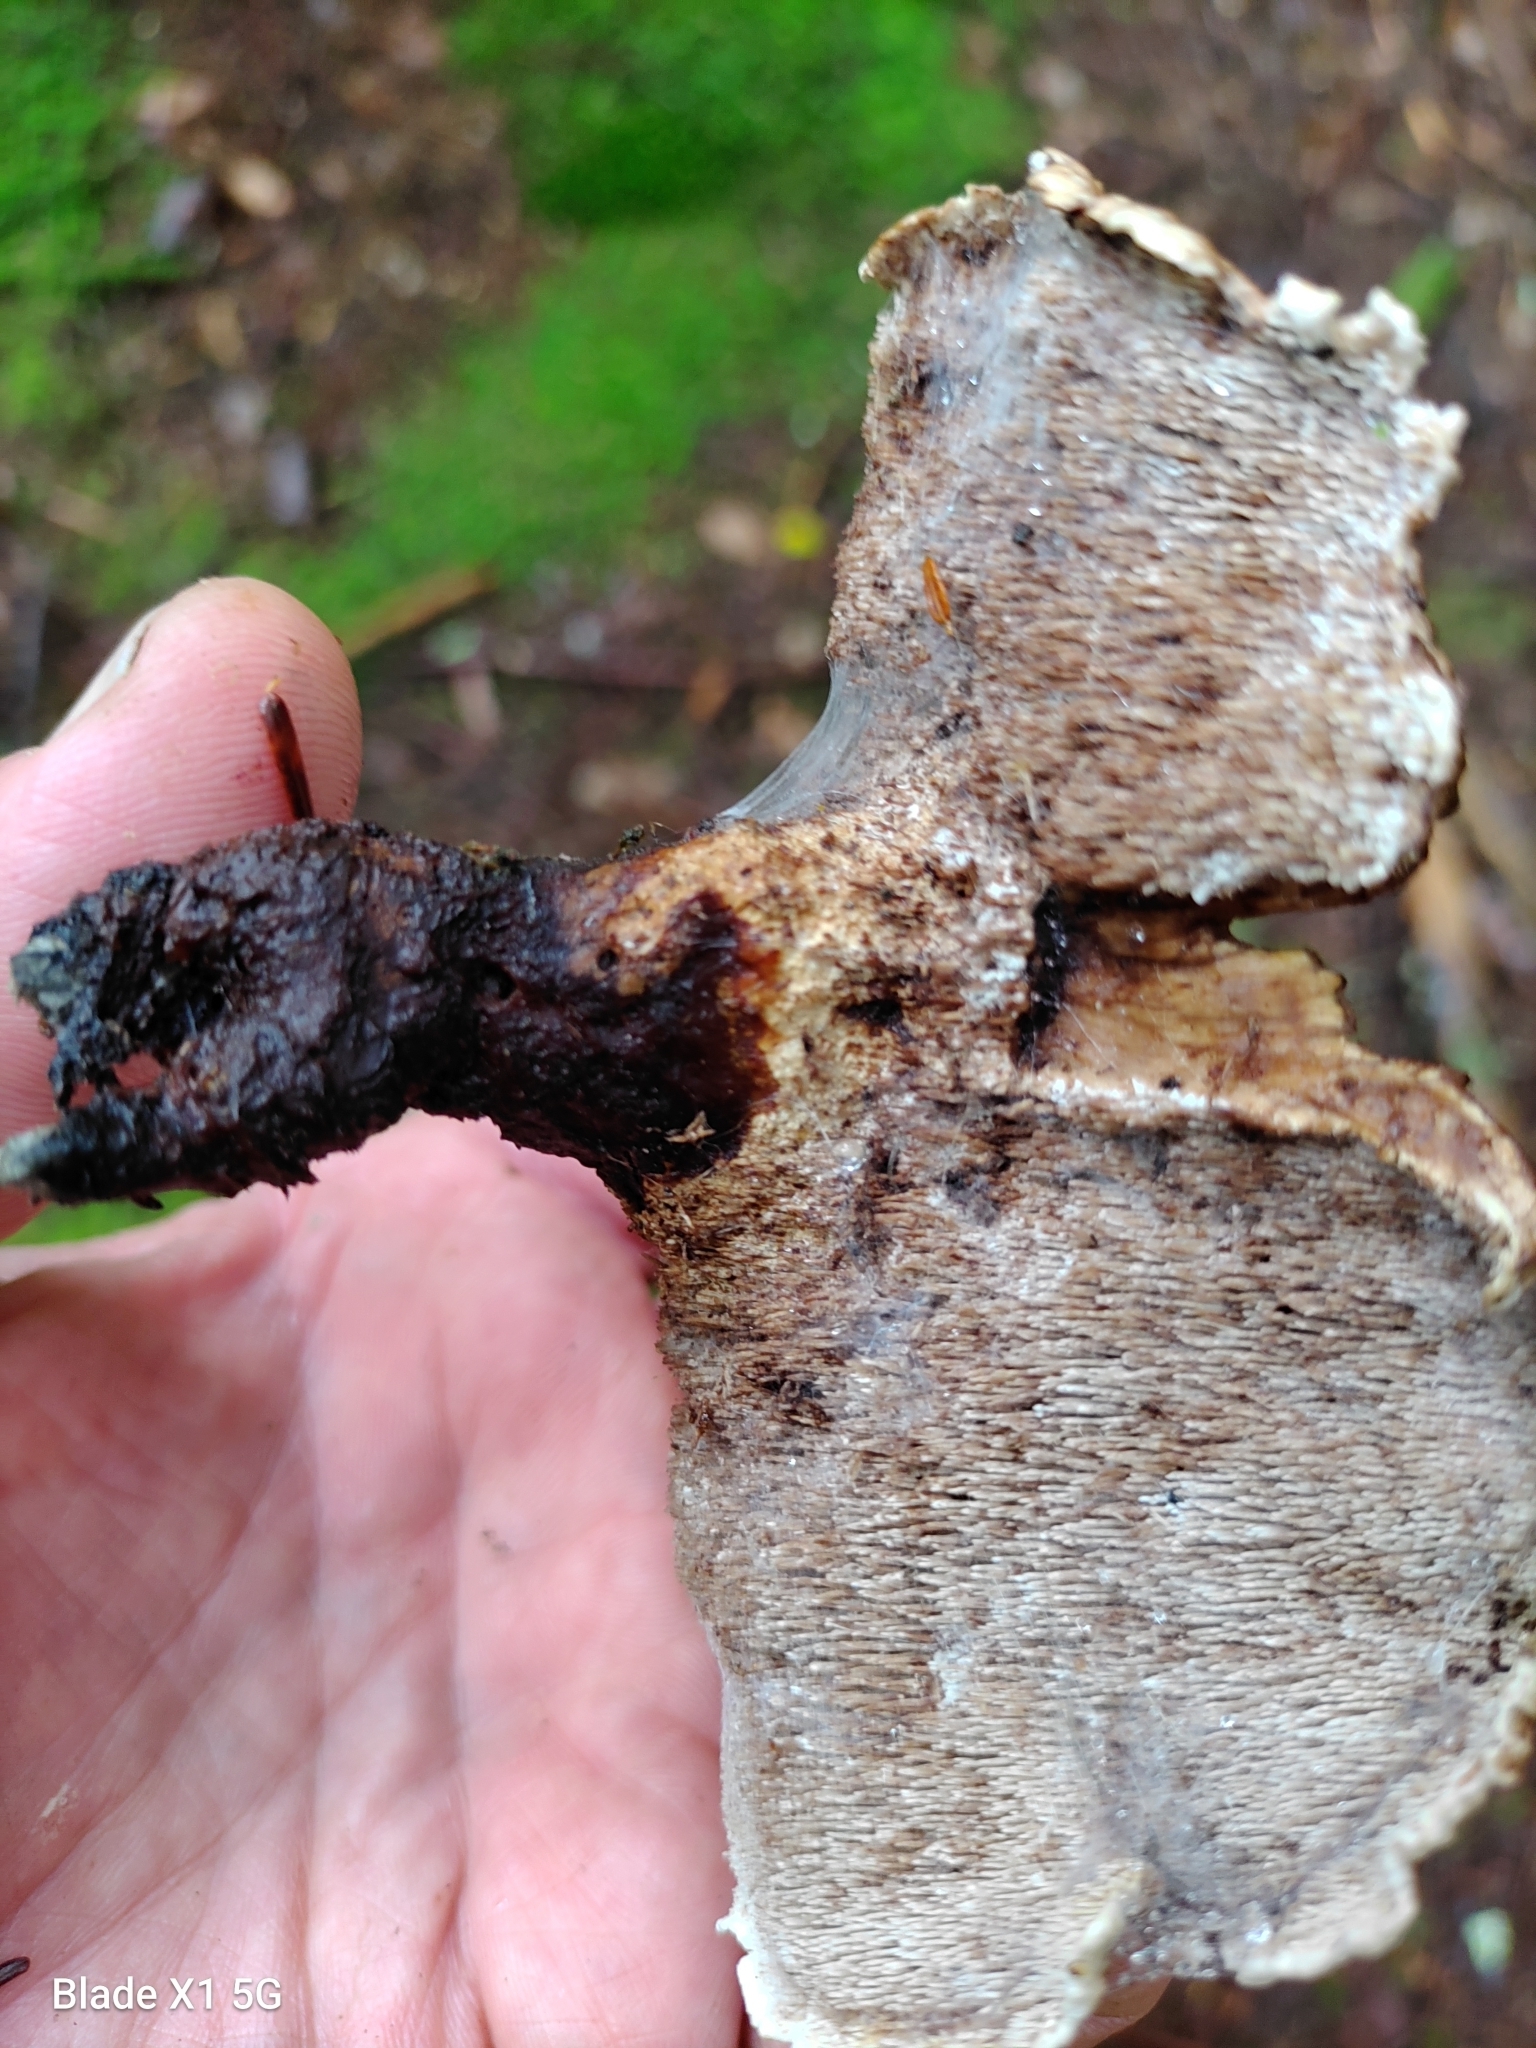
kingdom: Fungi
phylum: Basidiomycota
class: Agaricomycetes
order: Thelephorales
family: Thelephoraceae
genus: Phellodon
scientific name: Phellodon fuligineoalbus
